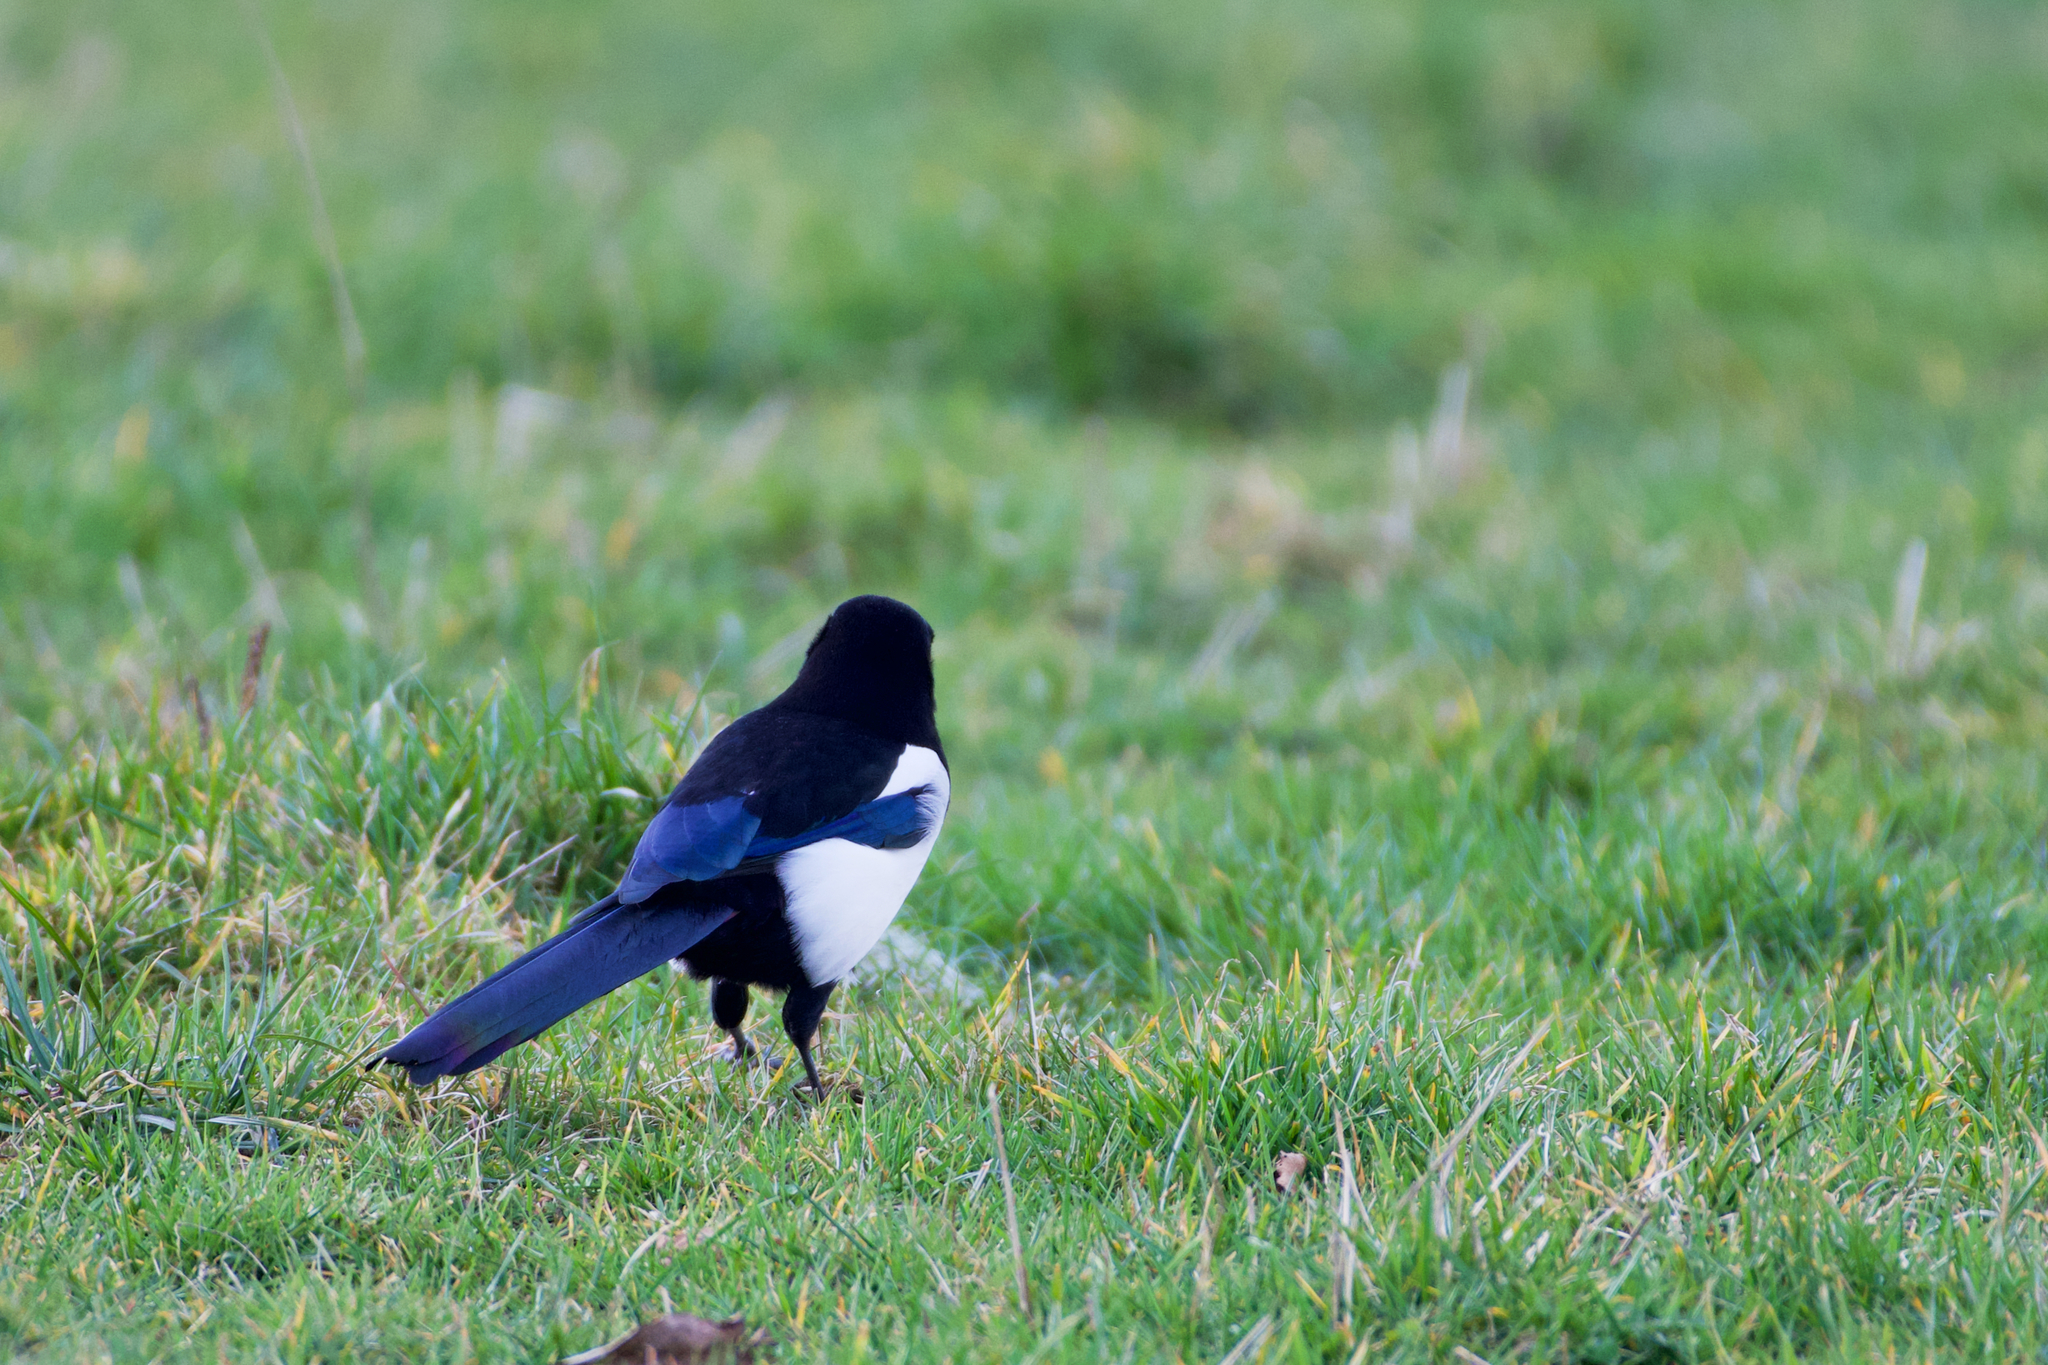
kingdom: Animalia
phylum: Chordata
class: Aves
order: Passeriformes
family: Corvidae
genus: Pica
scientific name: Pica pica
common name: Eurasian magpie
